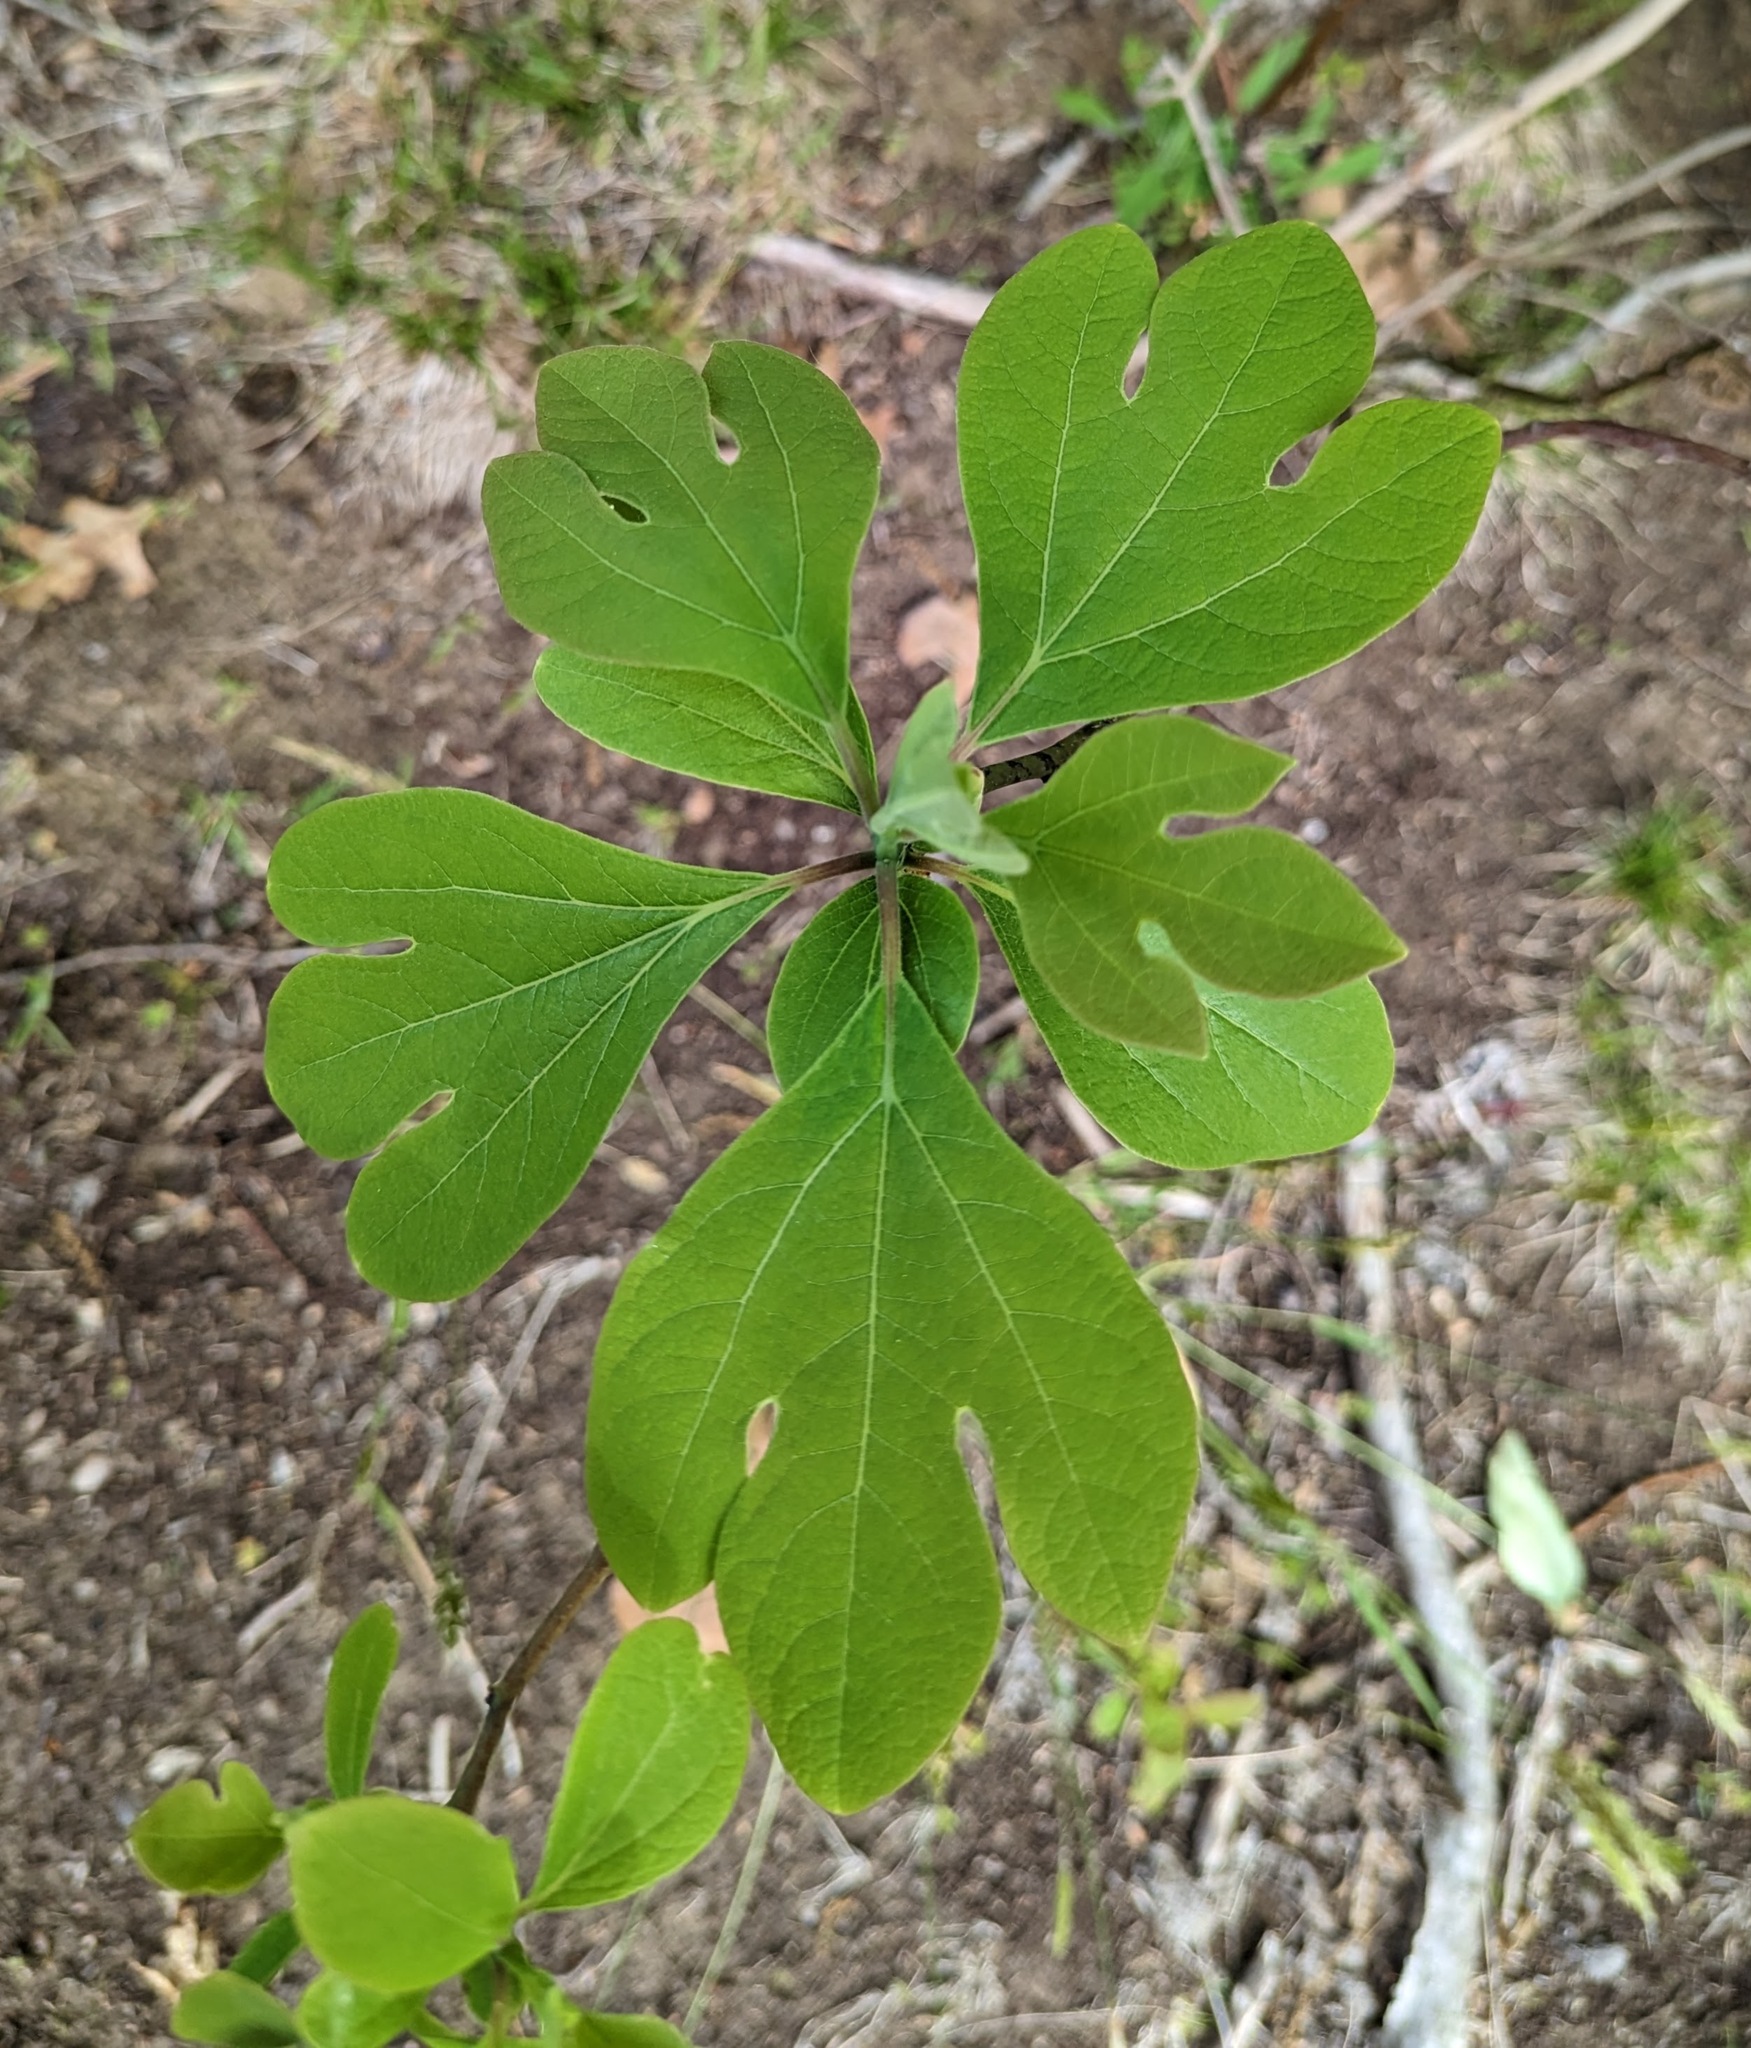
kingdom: Plantae
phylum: Tracheophyta
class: Magnoliopsida
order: Laurales
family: Lauraceae
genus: Sassafras
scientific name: Sassafras albidum
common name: Sassafras
